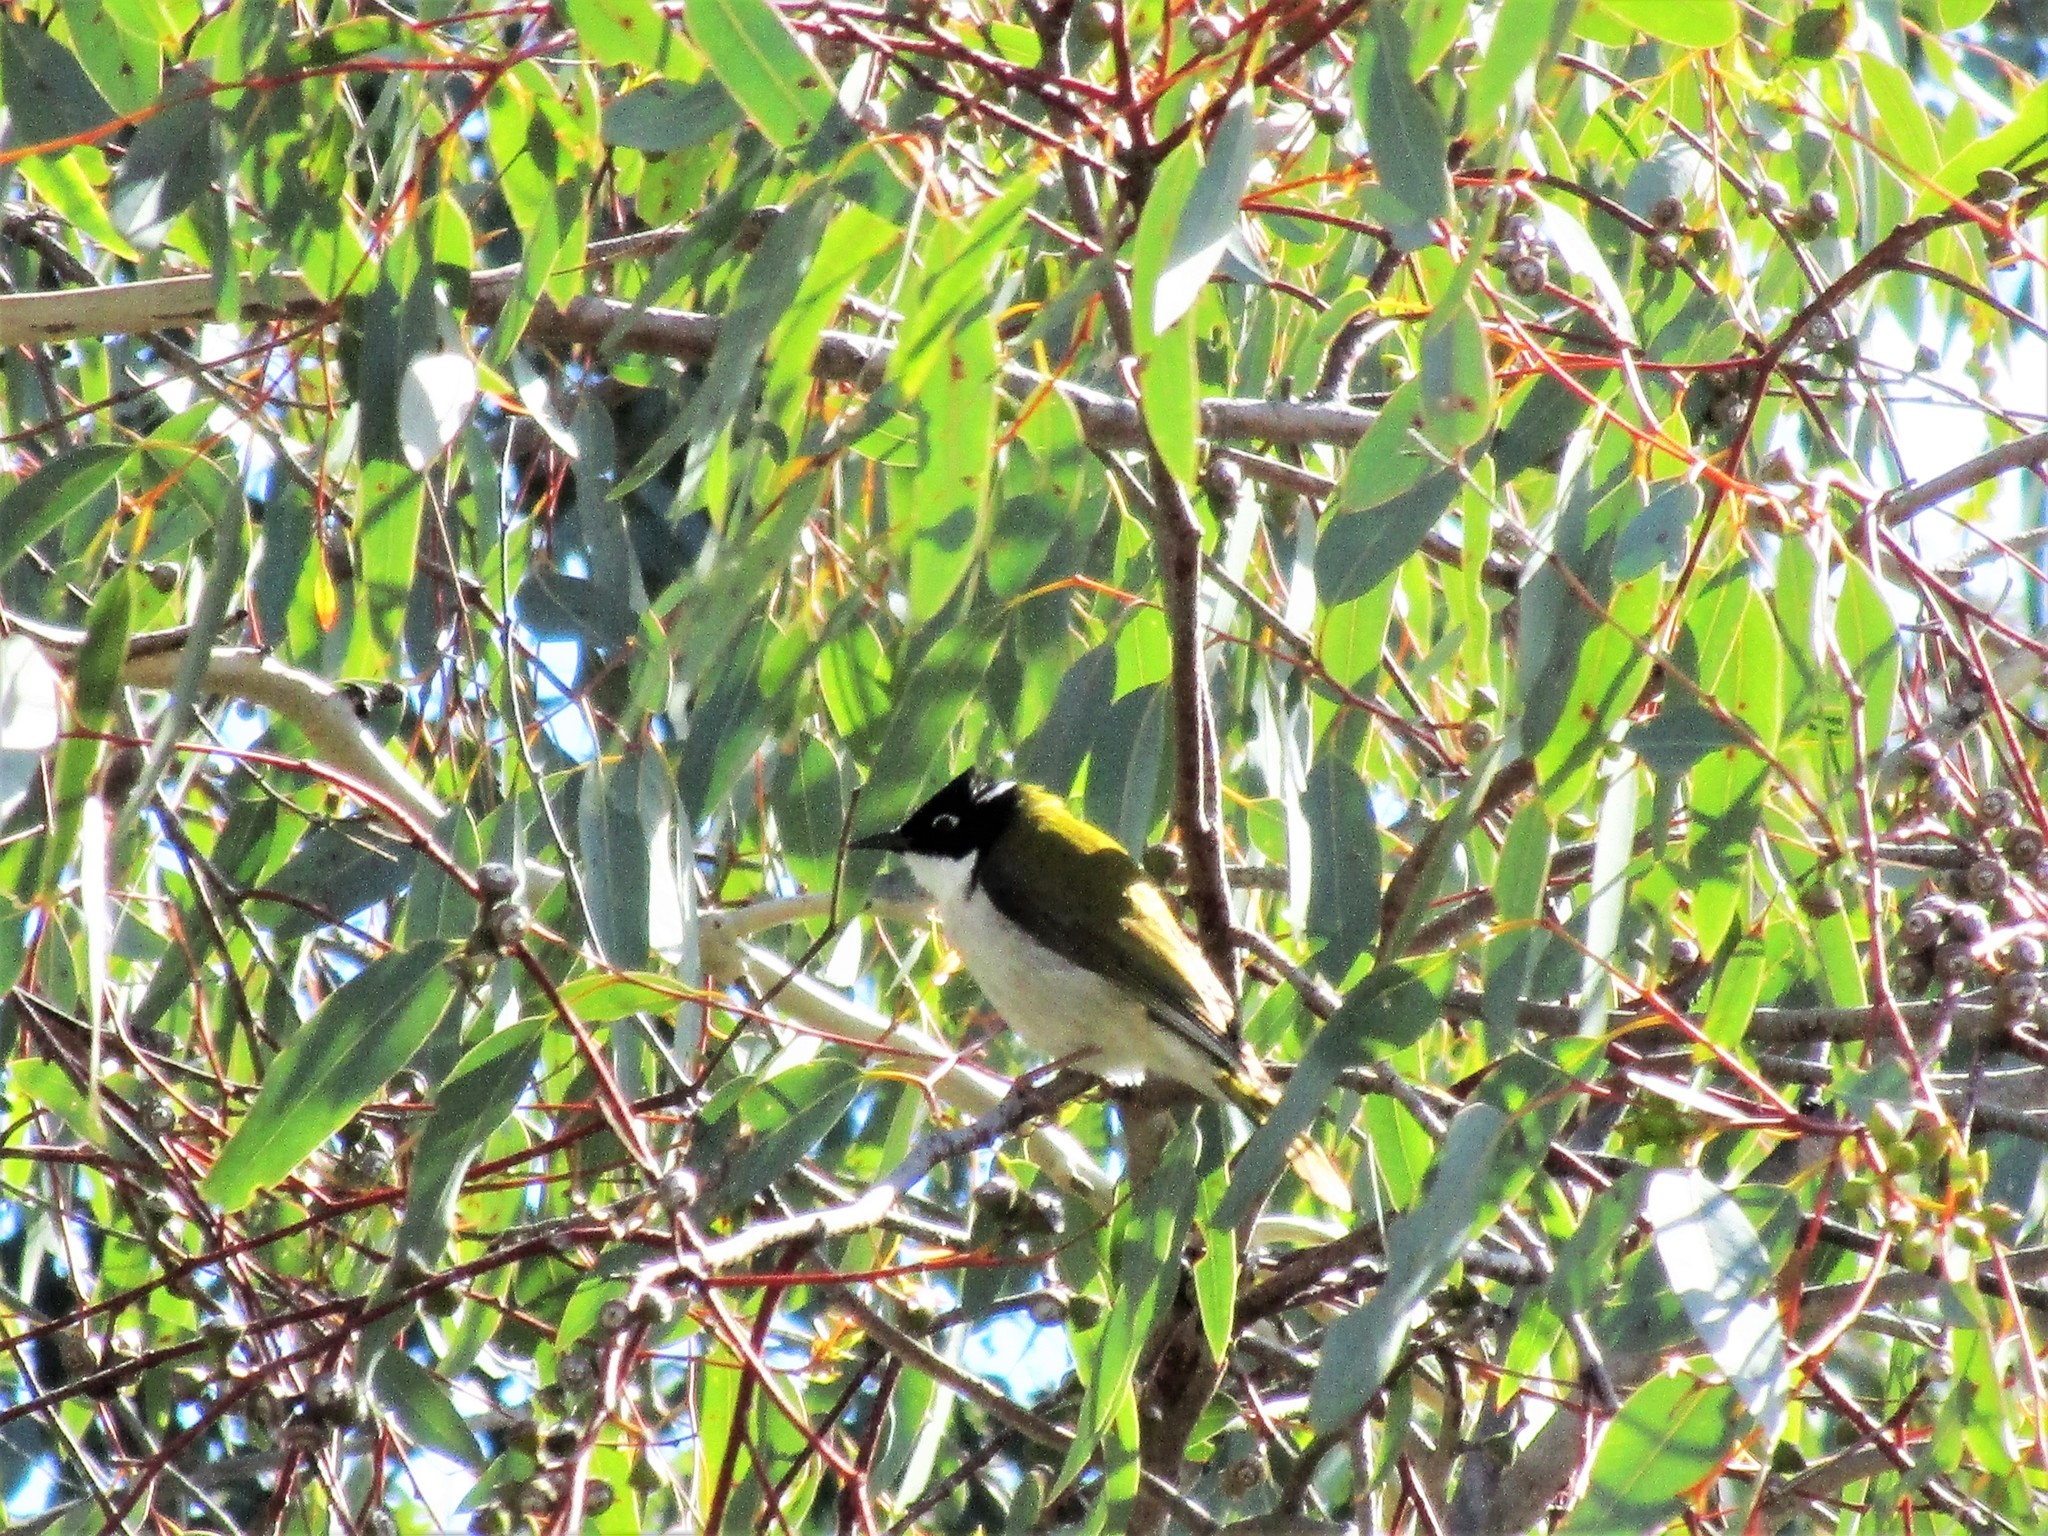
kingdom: Animalia
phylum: Chordata
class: Aves
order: Passeriformes
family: Meliphagidae
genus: Melithreptus
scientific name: Melithreptus chloropsis
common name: Gilbert's honeyeater
